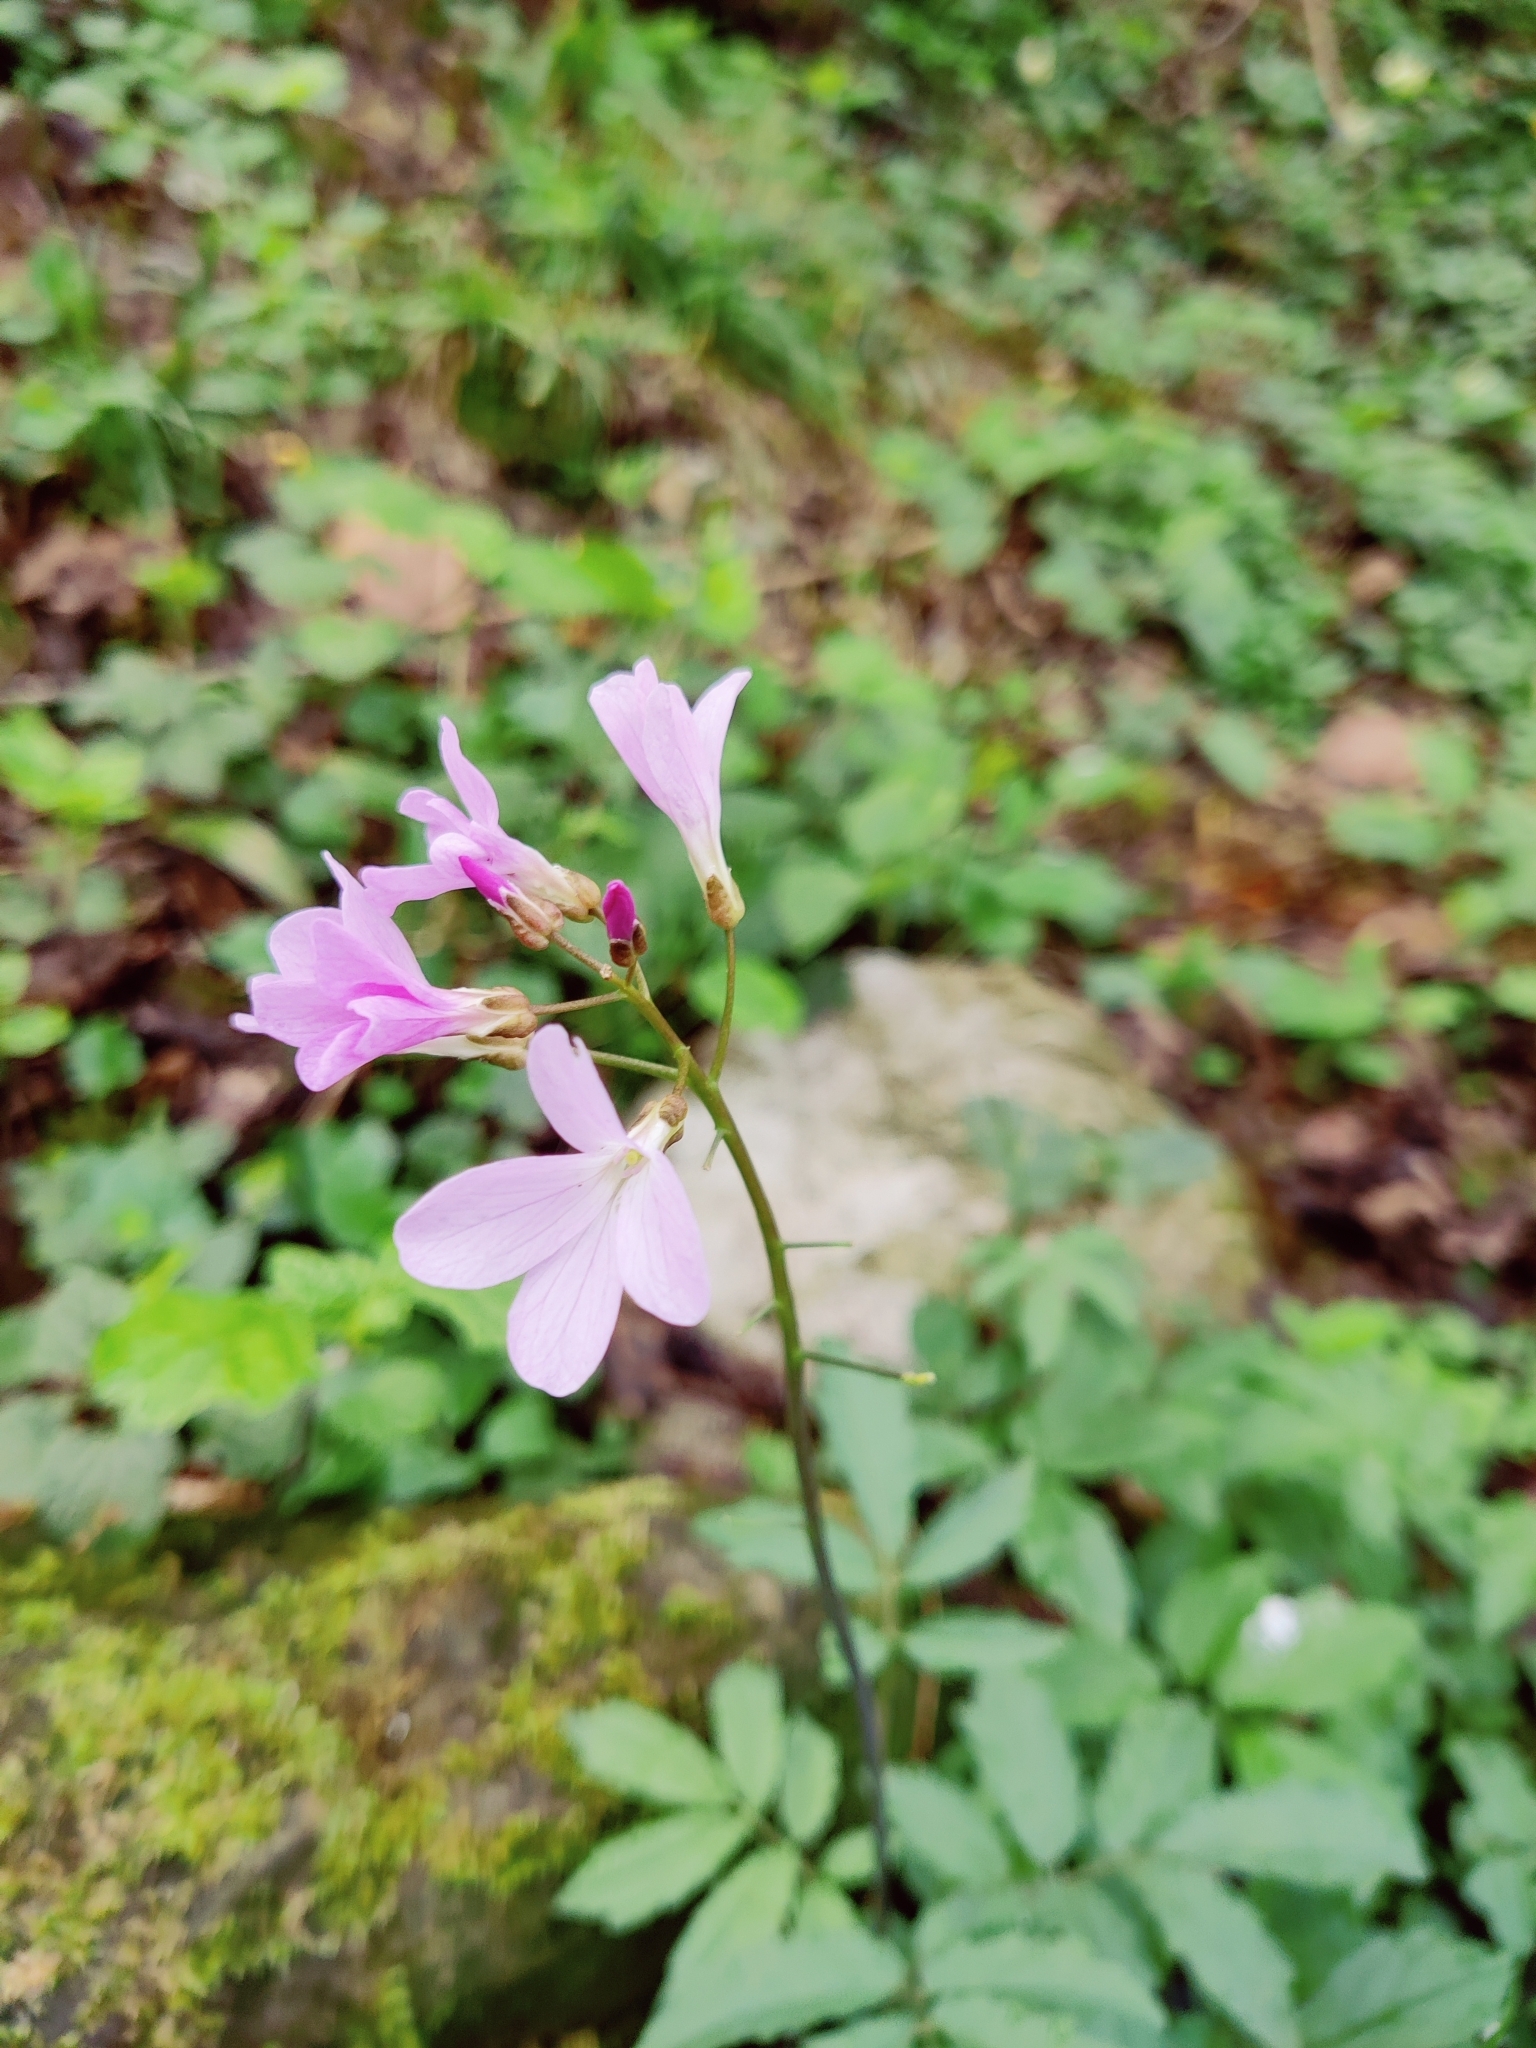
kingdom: Plantae
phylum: Tracheophyta
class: Magnoliopsida
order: Brassicales
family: Brassicaceae
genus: Cardamine
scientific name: Cardamine quinquefolia
